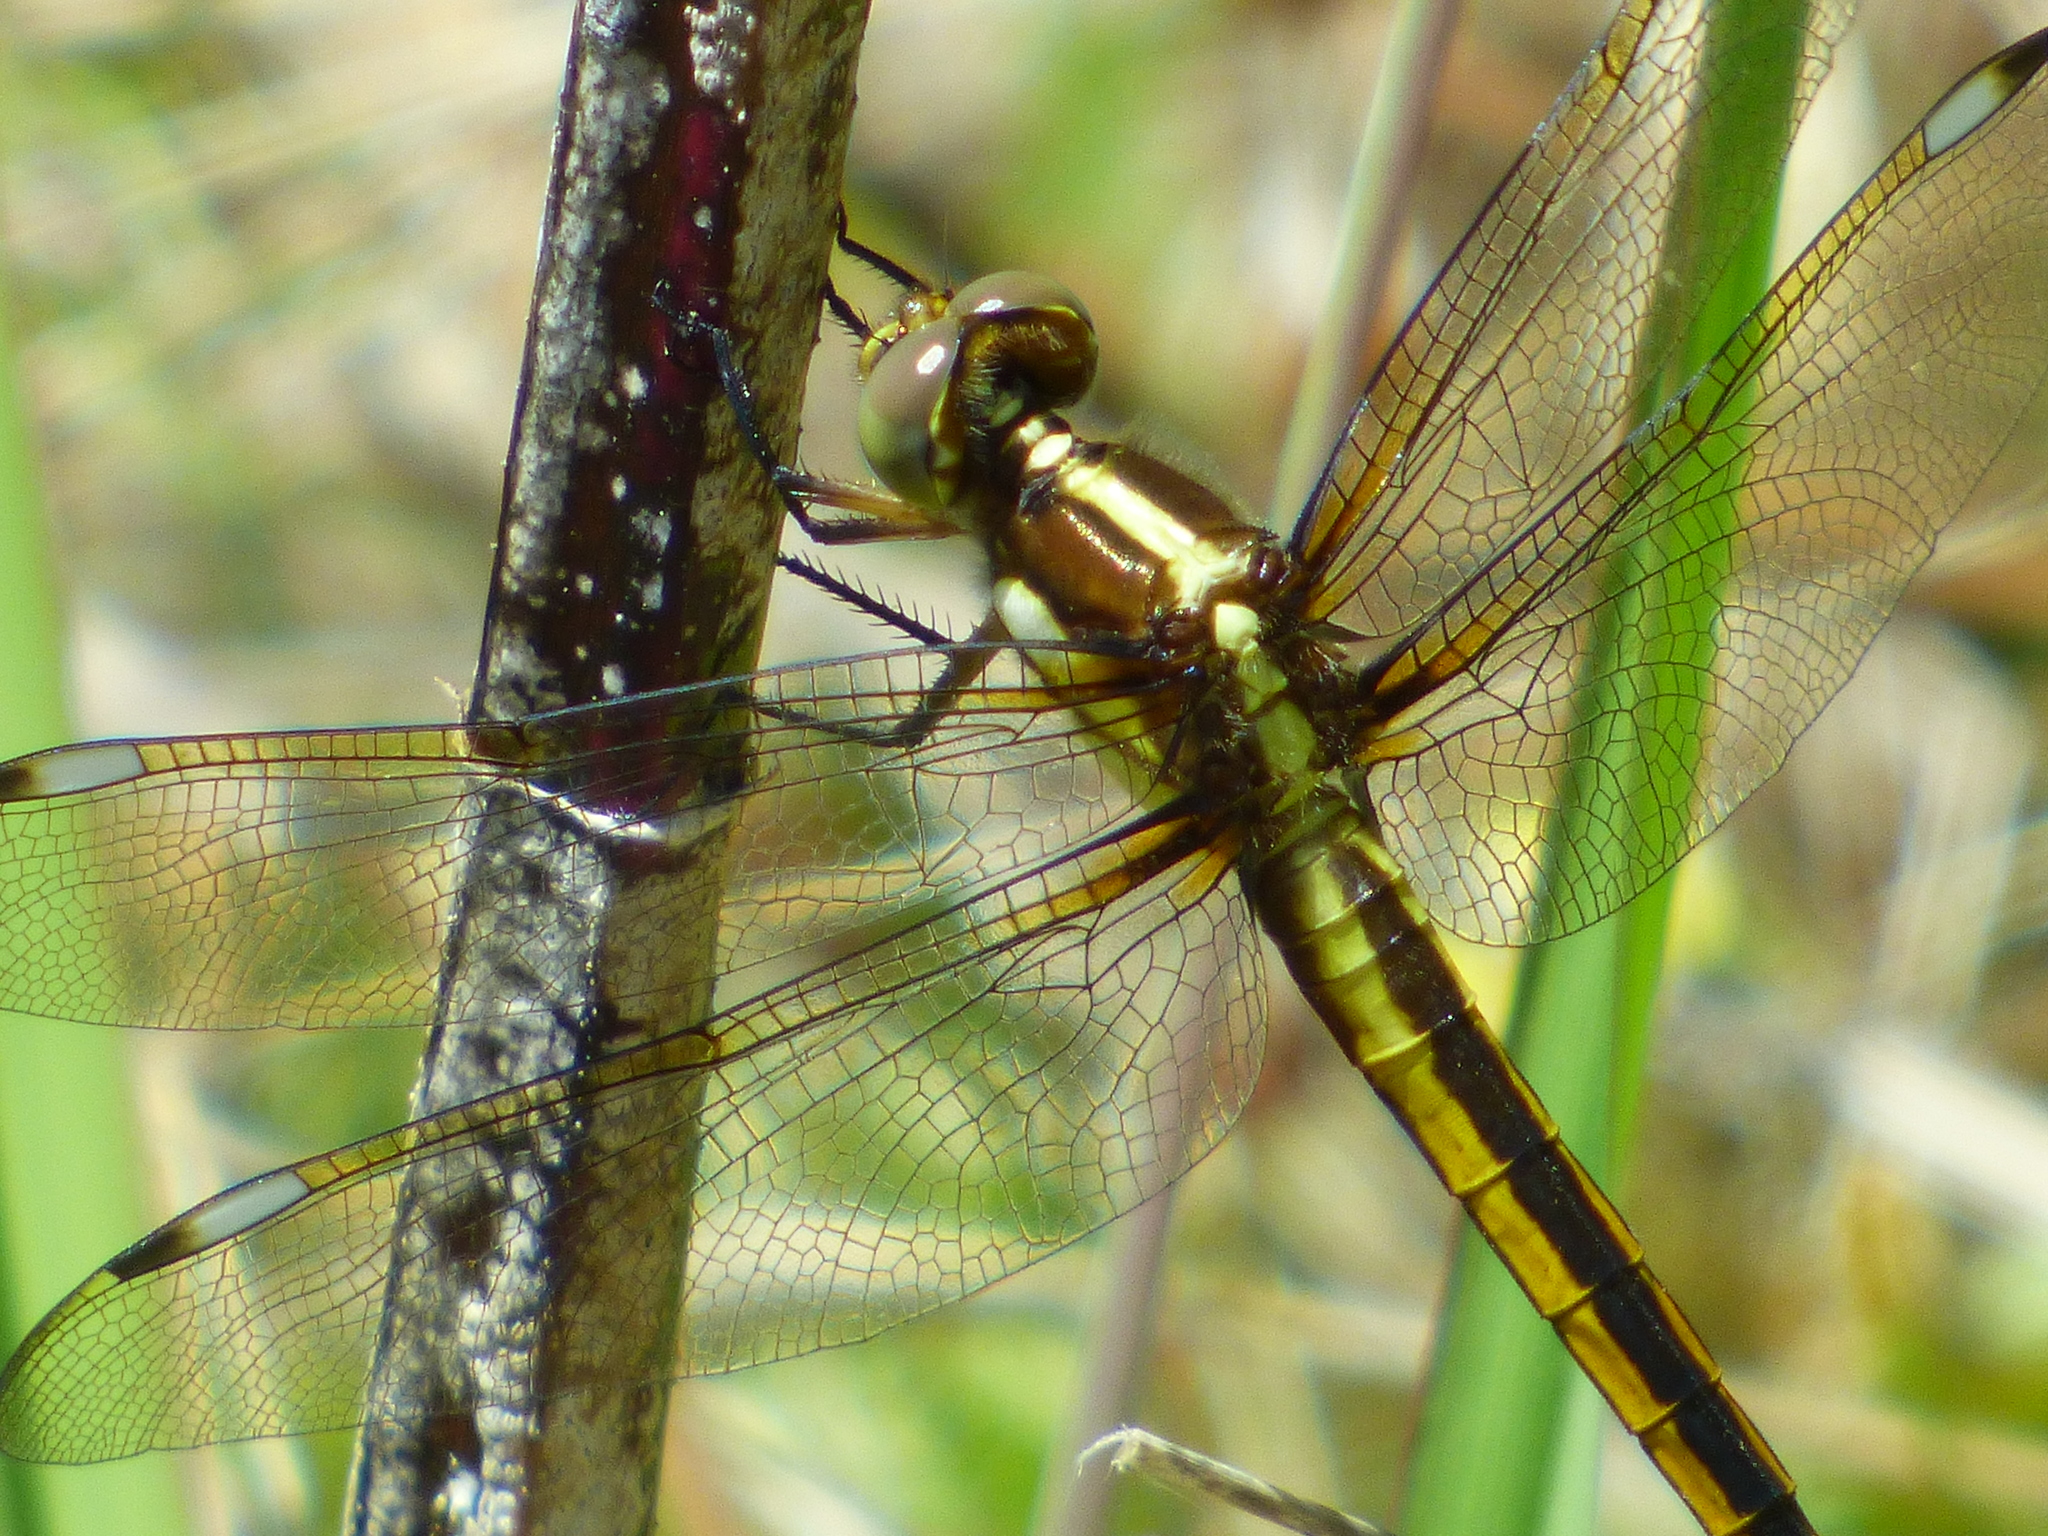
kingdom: Animalia
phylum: Arthropoda
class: Insecta
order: Odonata
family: Libellulidae
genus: Libellula
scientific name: Libellula cyanea
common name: Spangled skimmer
